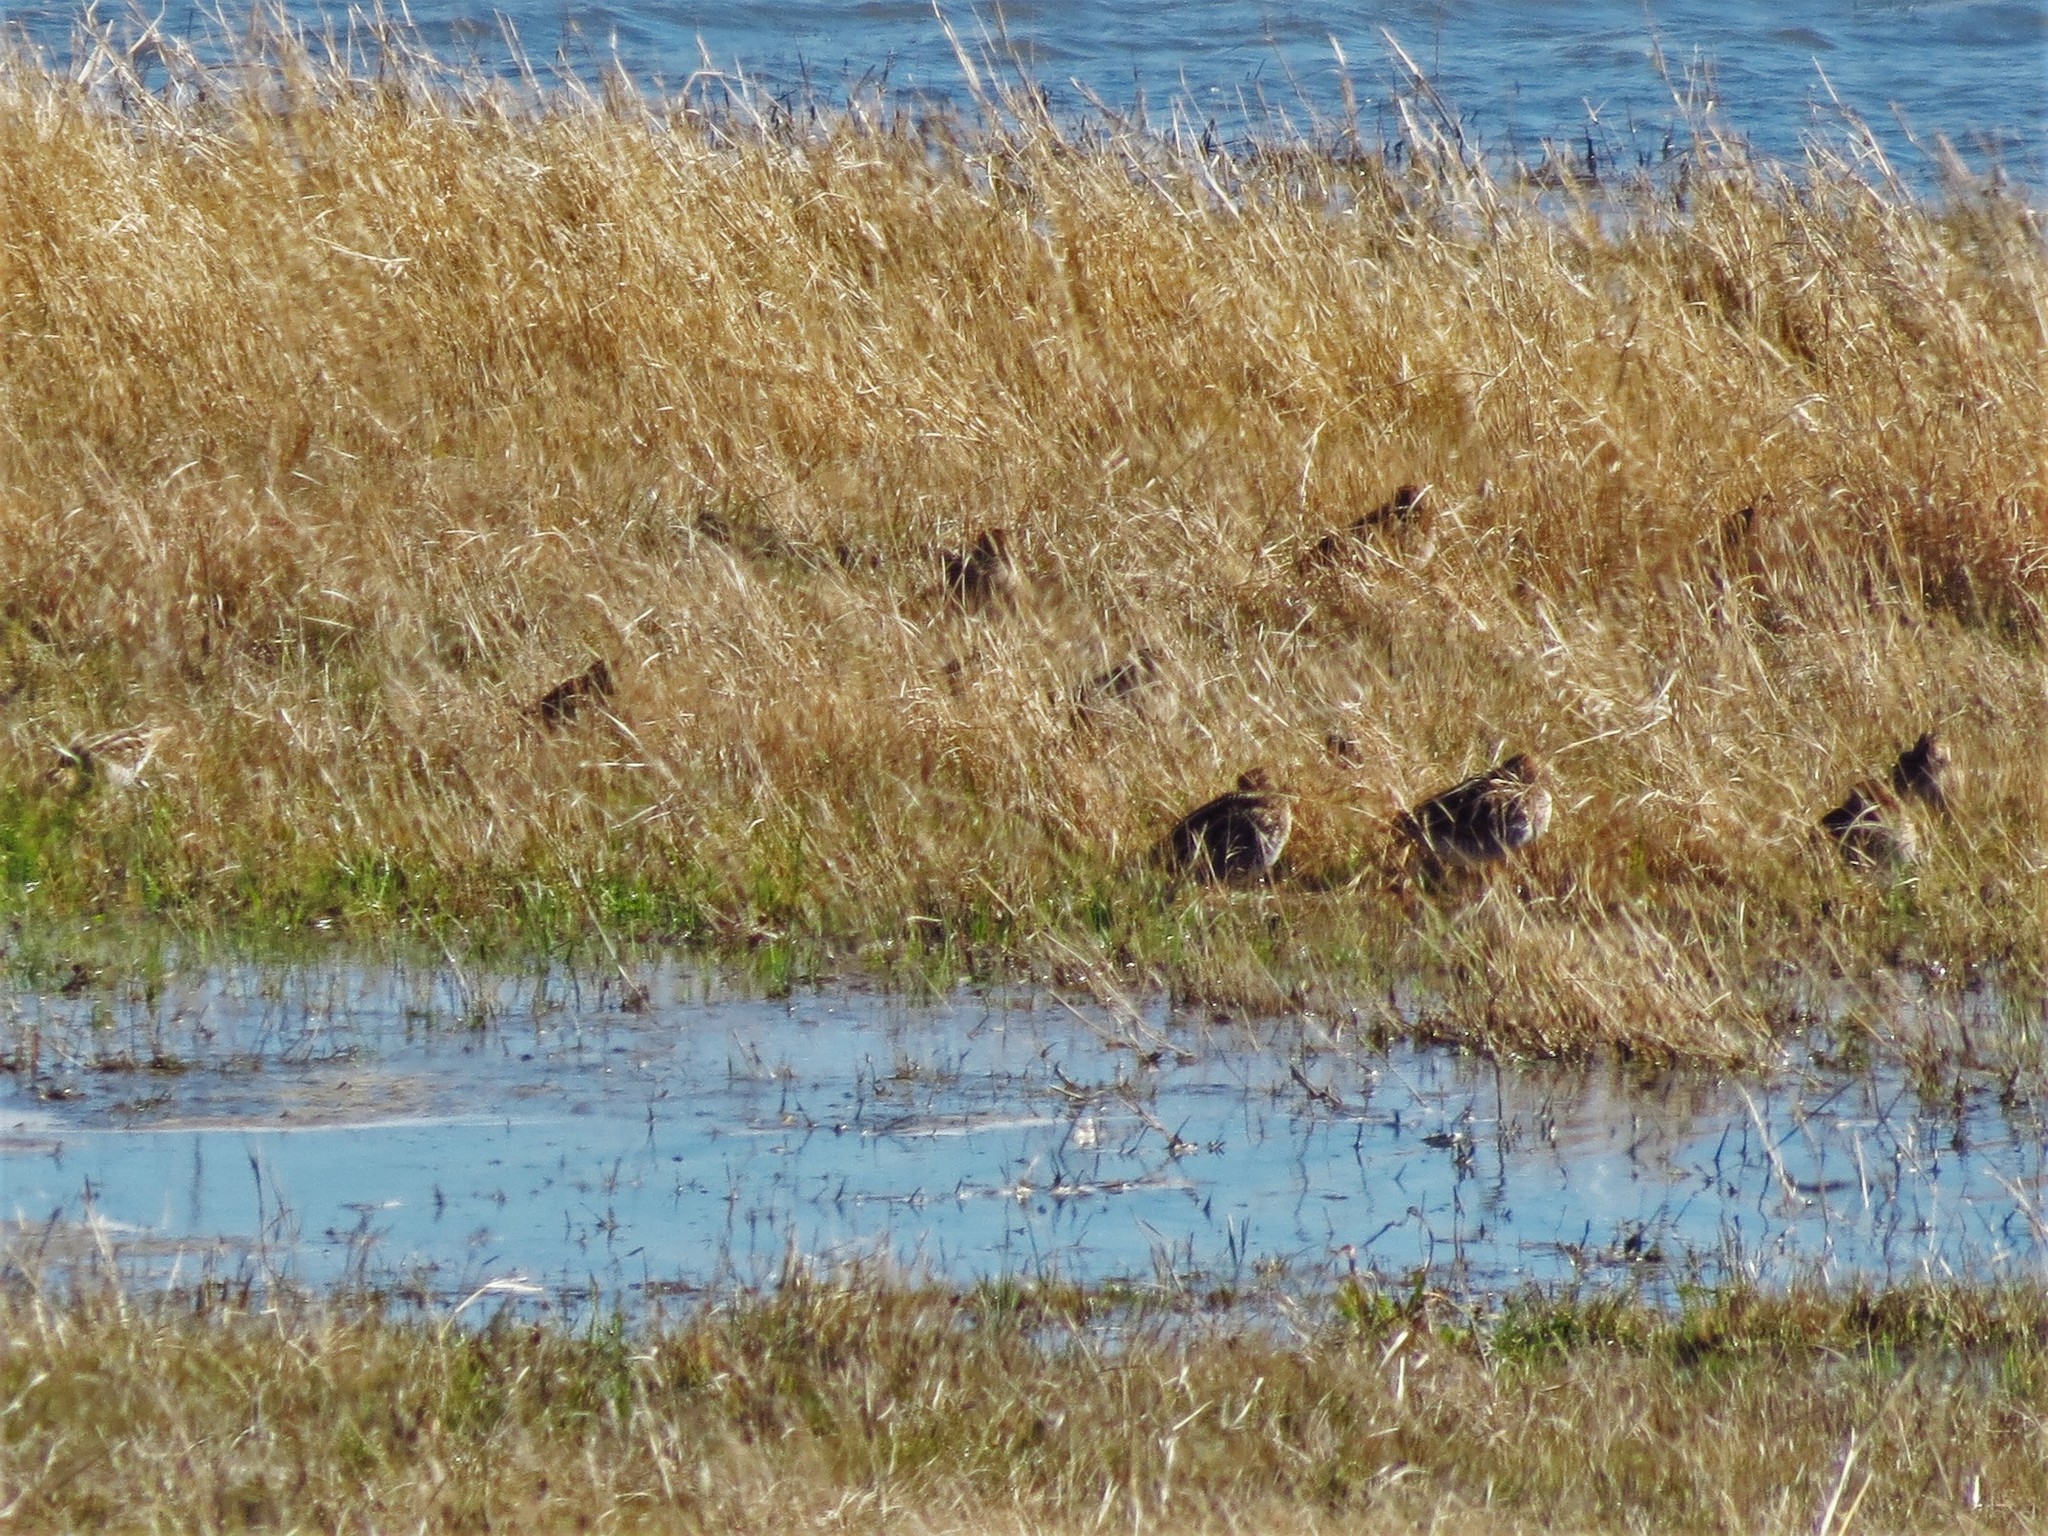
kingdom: Animalia
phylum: Chordata
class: Aves
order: Charadriiformes
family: Scolopacidae
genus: Gallinago
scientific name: Gallinago delicata
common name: Wilson's snipe
